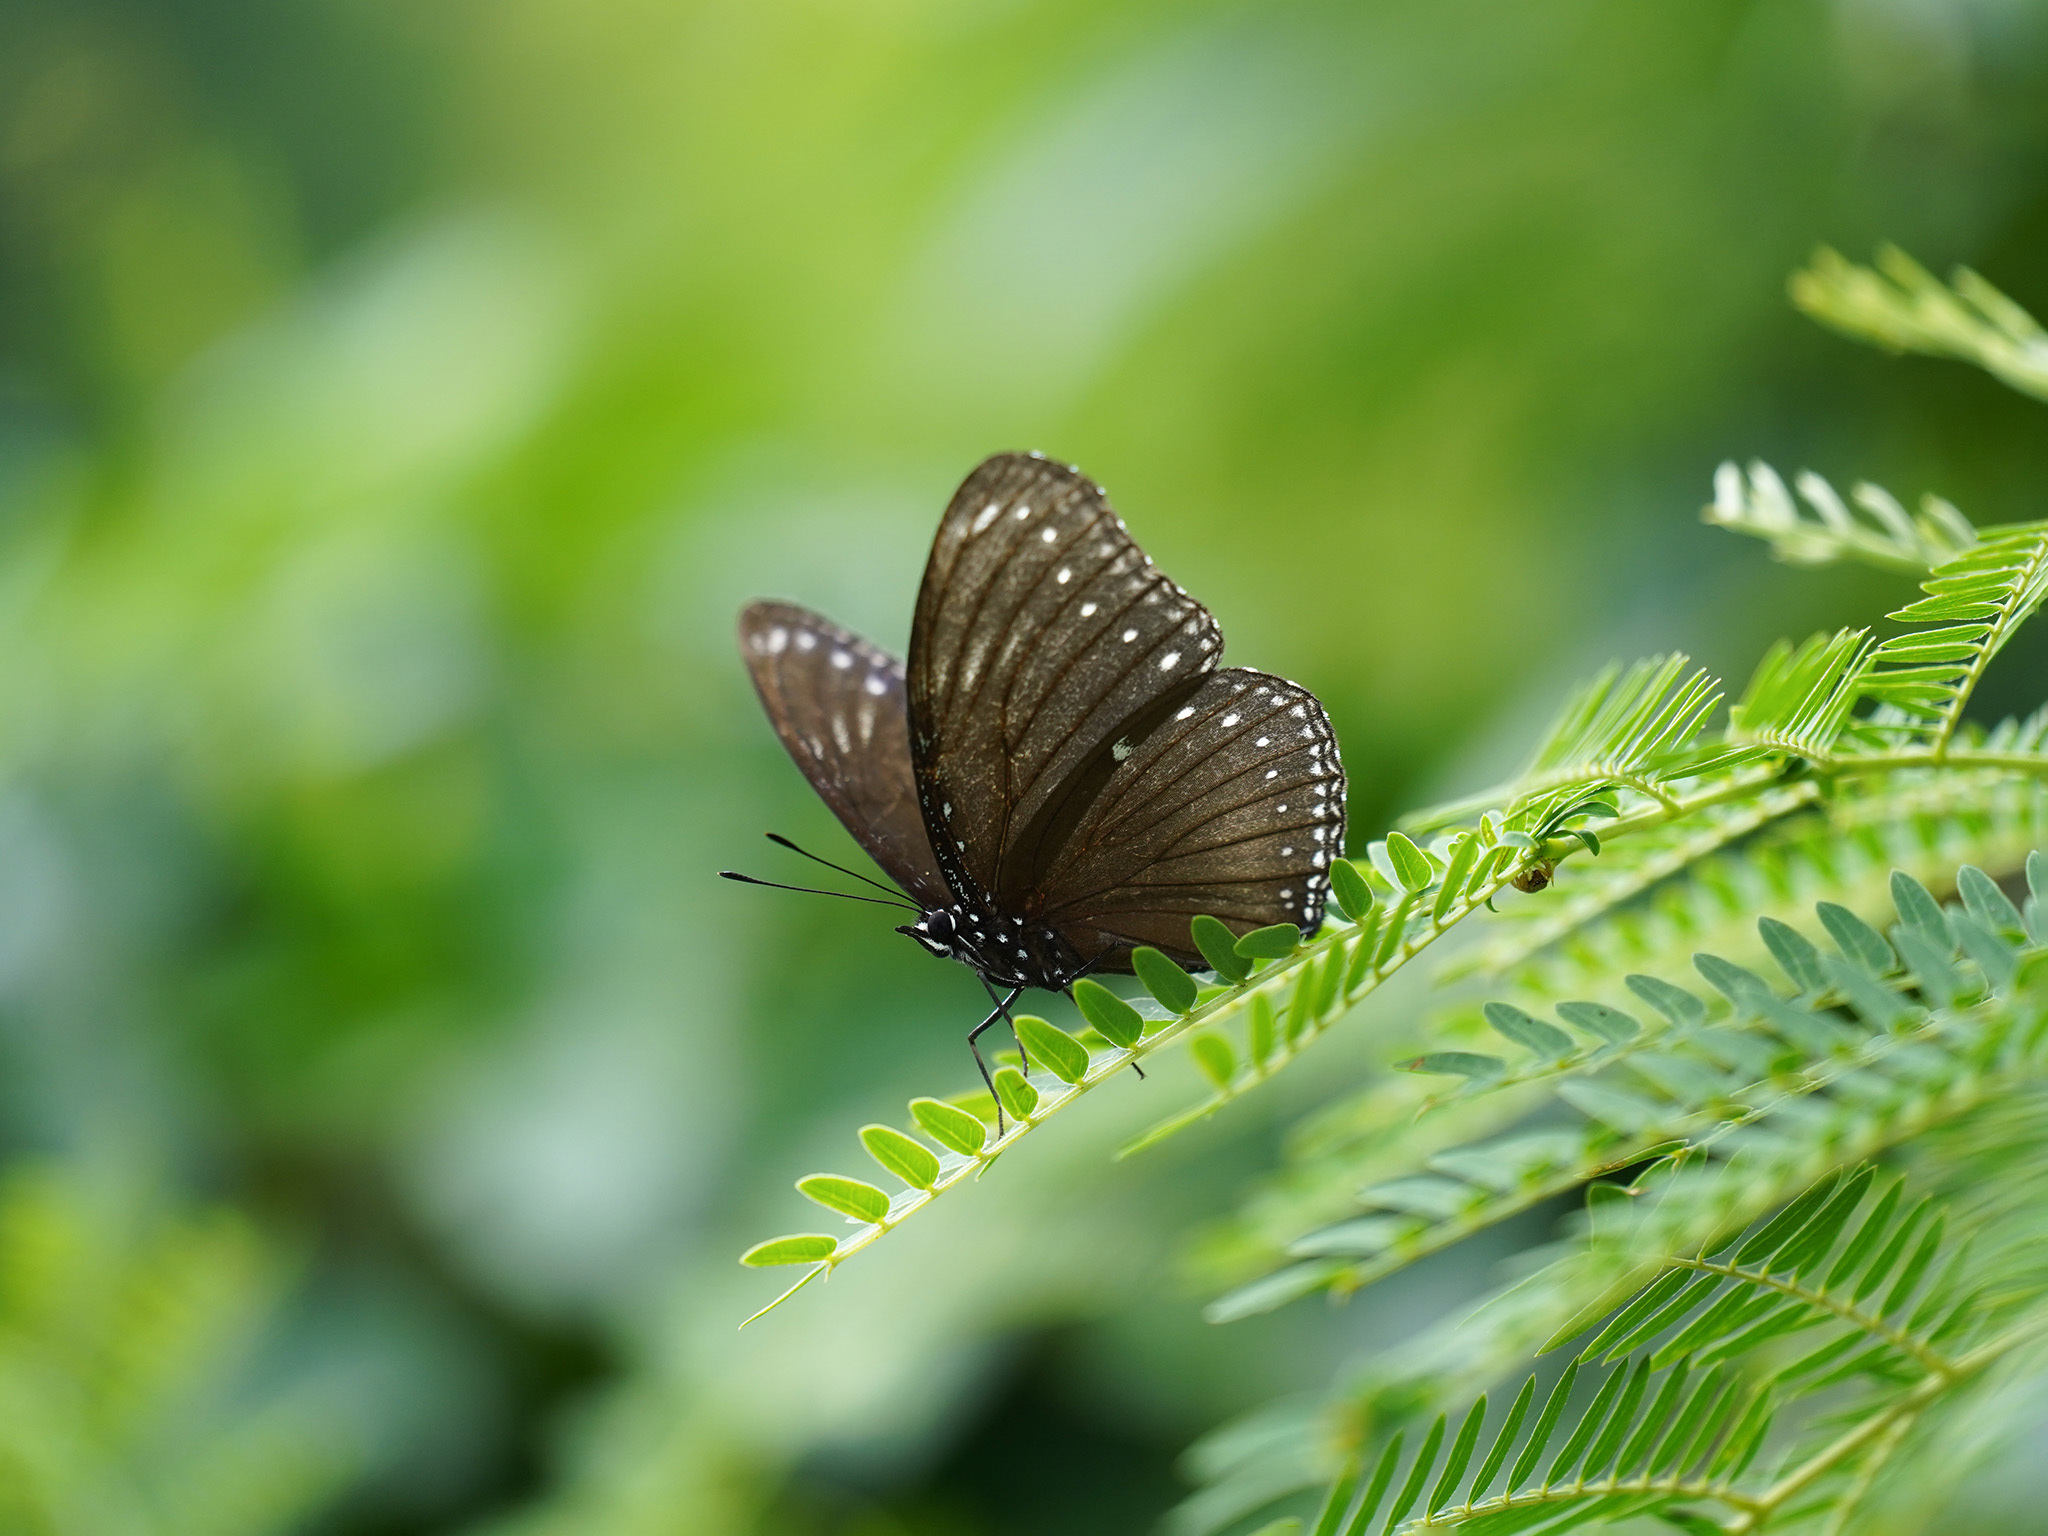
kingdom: Animalia
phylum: Arthropoda
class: Insecta
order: Lepidoptera
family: Nymphalidae
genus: Hypolimnas
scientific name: Hypolimnas anomala
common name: Malayan eggfly
